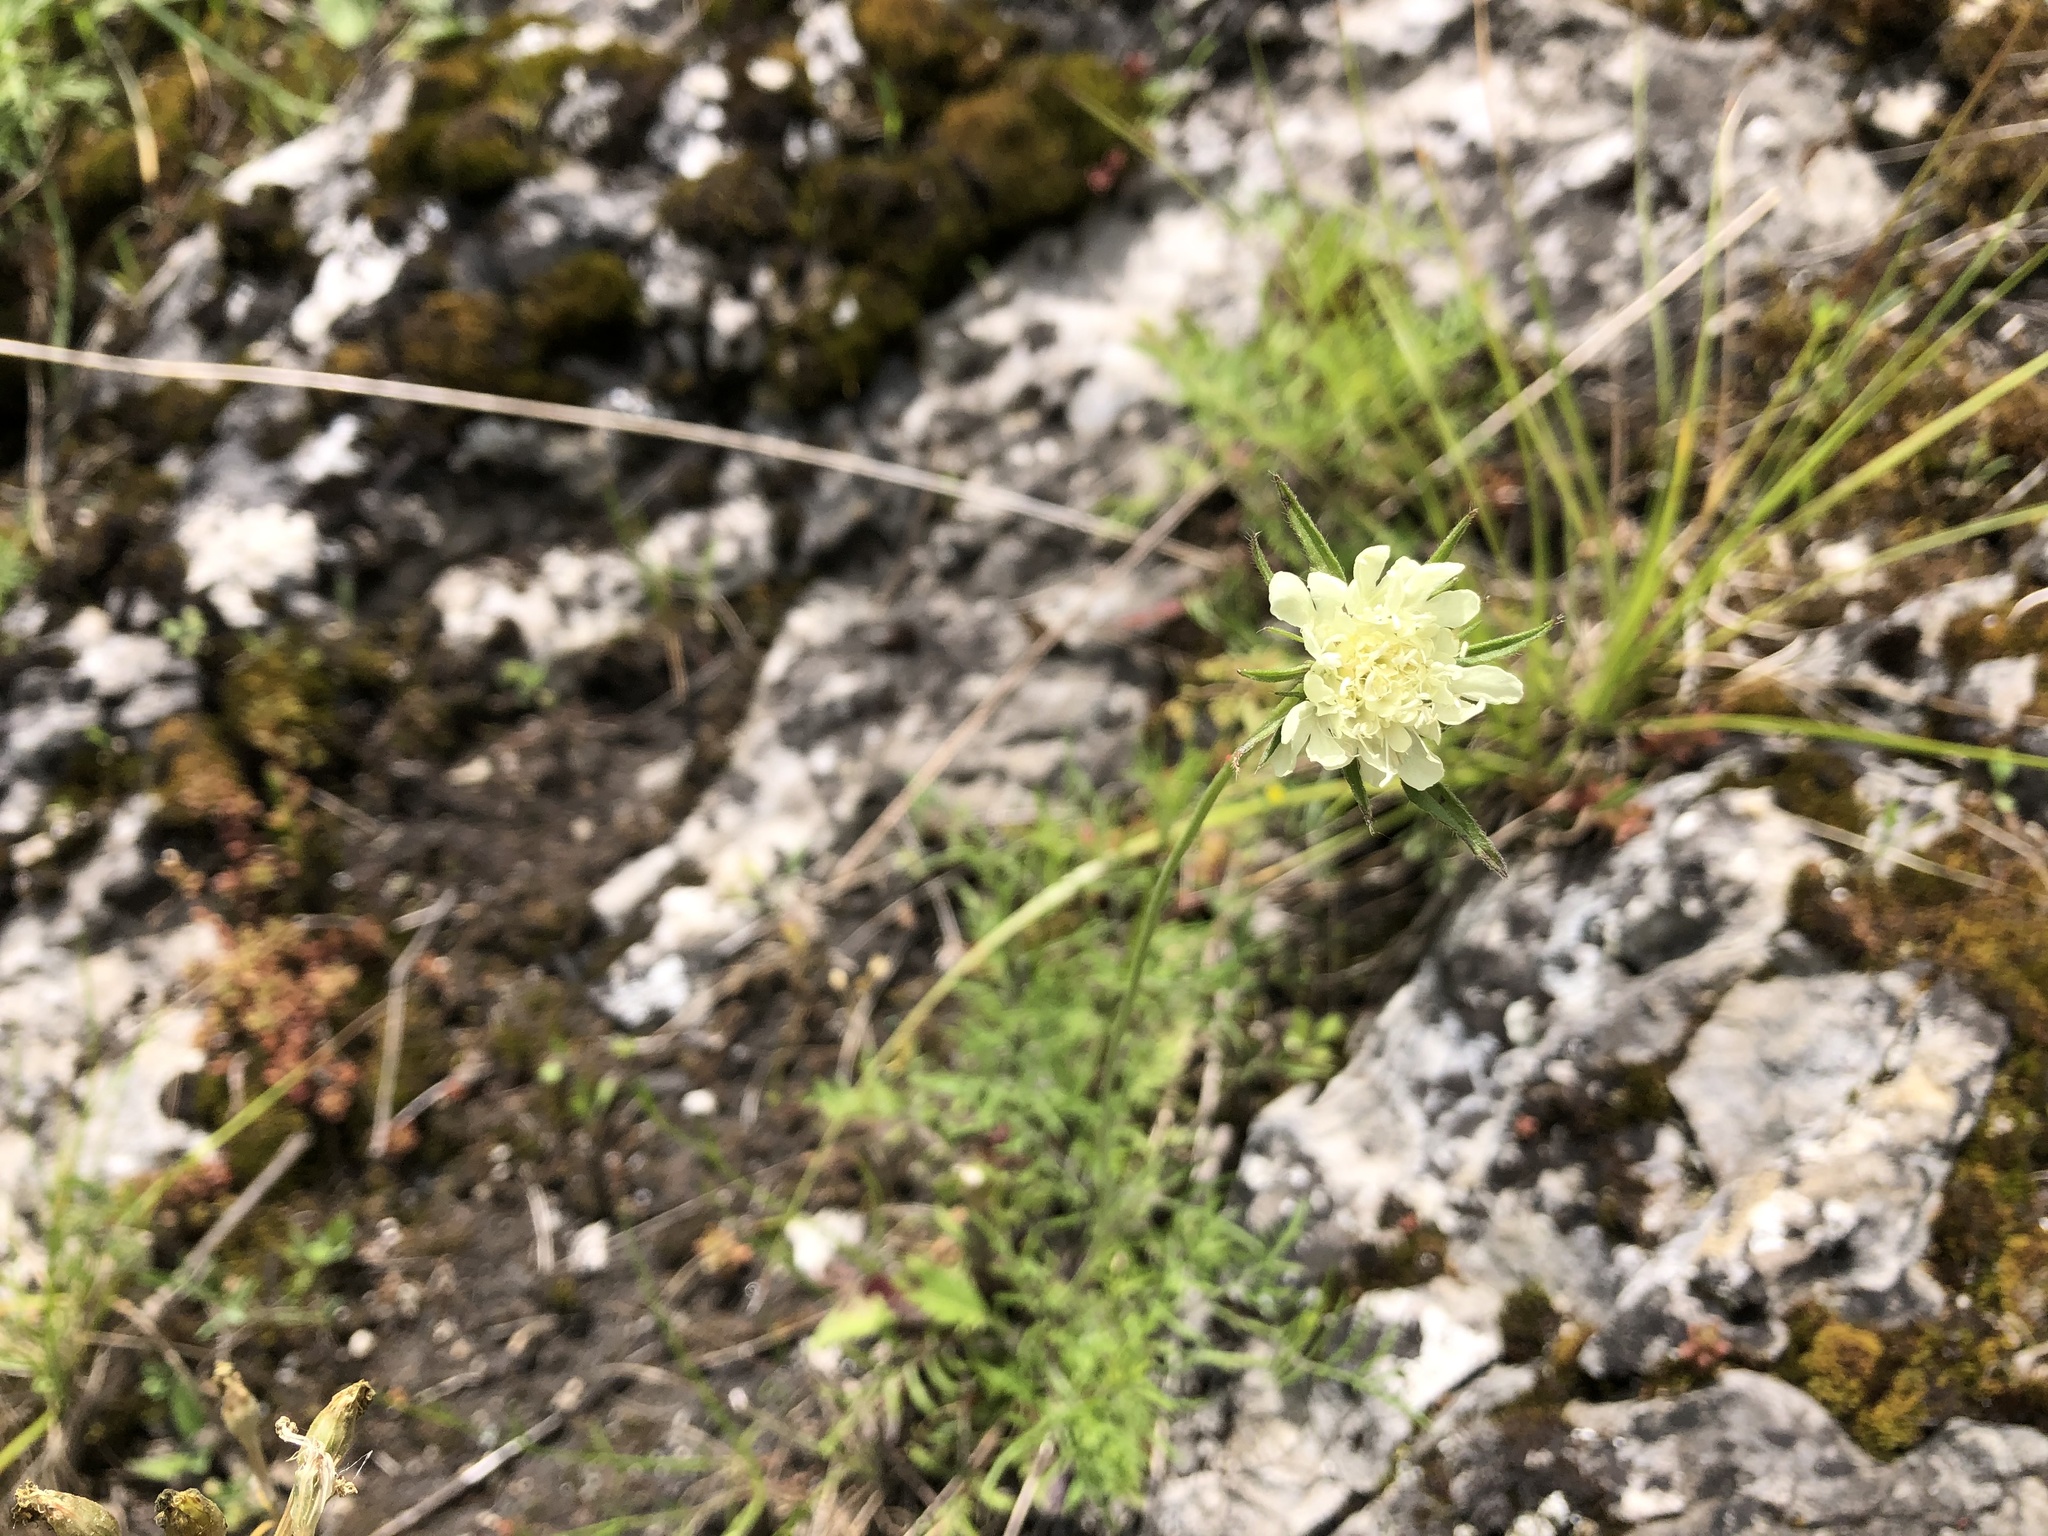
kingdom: Plantae
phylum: Tracheophyta
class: Magnoliopsida
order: Dipsacales
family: Caprifoliaceae
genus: Scabiosa
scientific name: Scabiosa ochroleuca
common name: Cream pincushions
